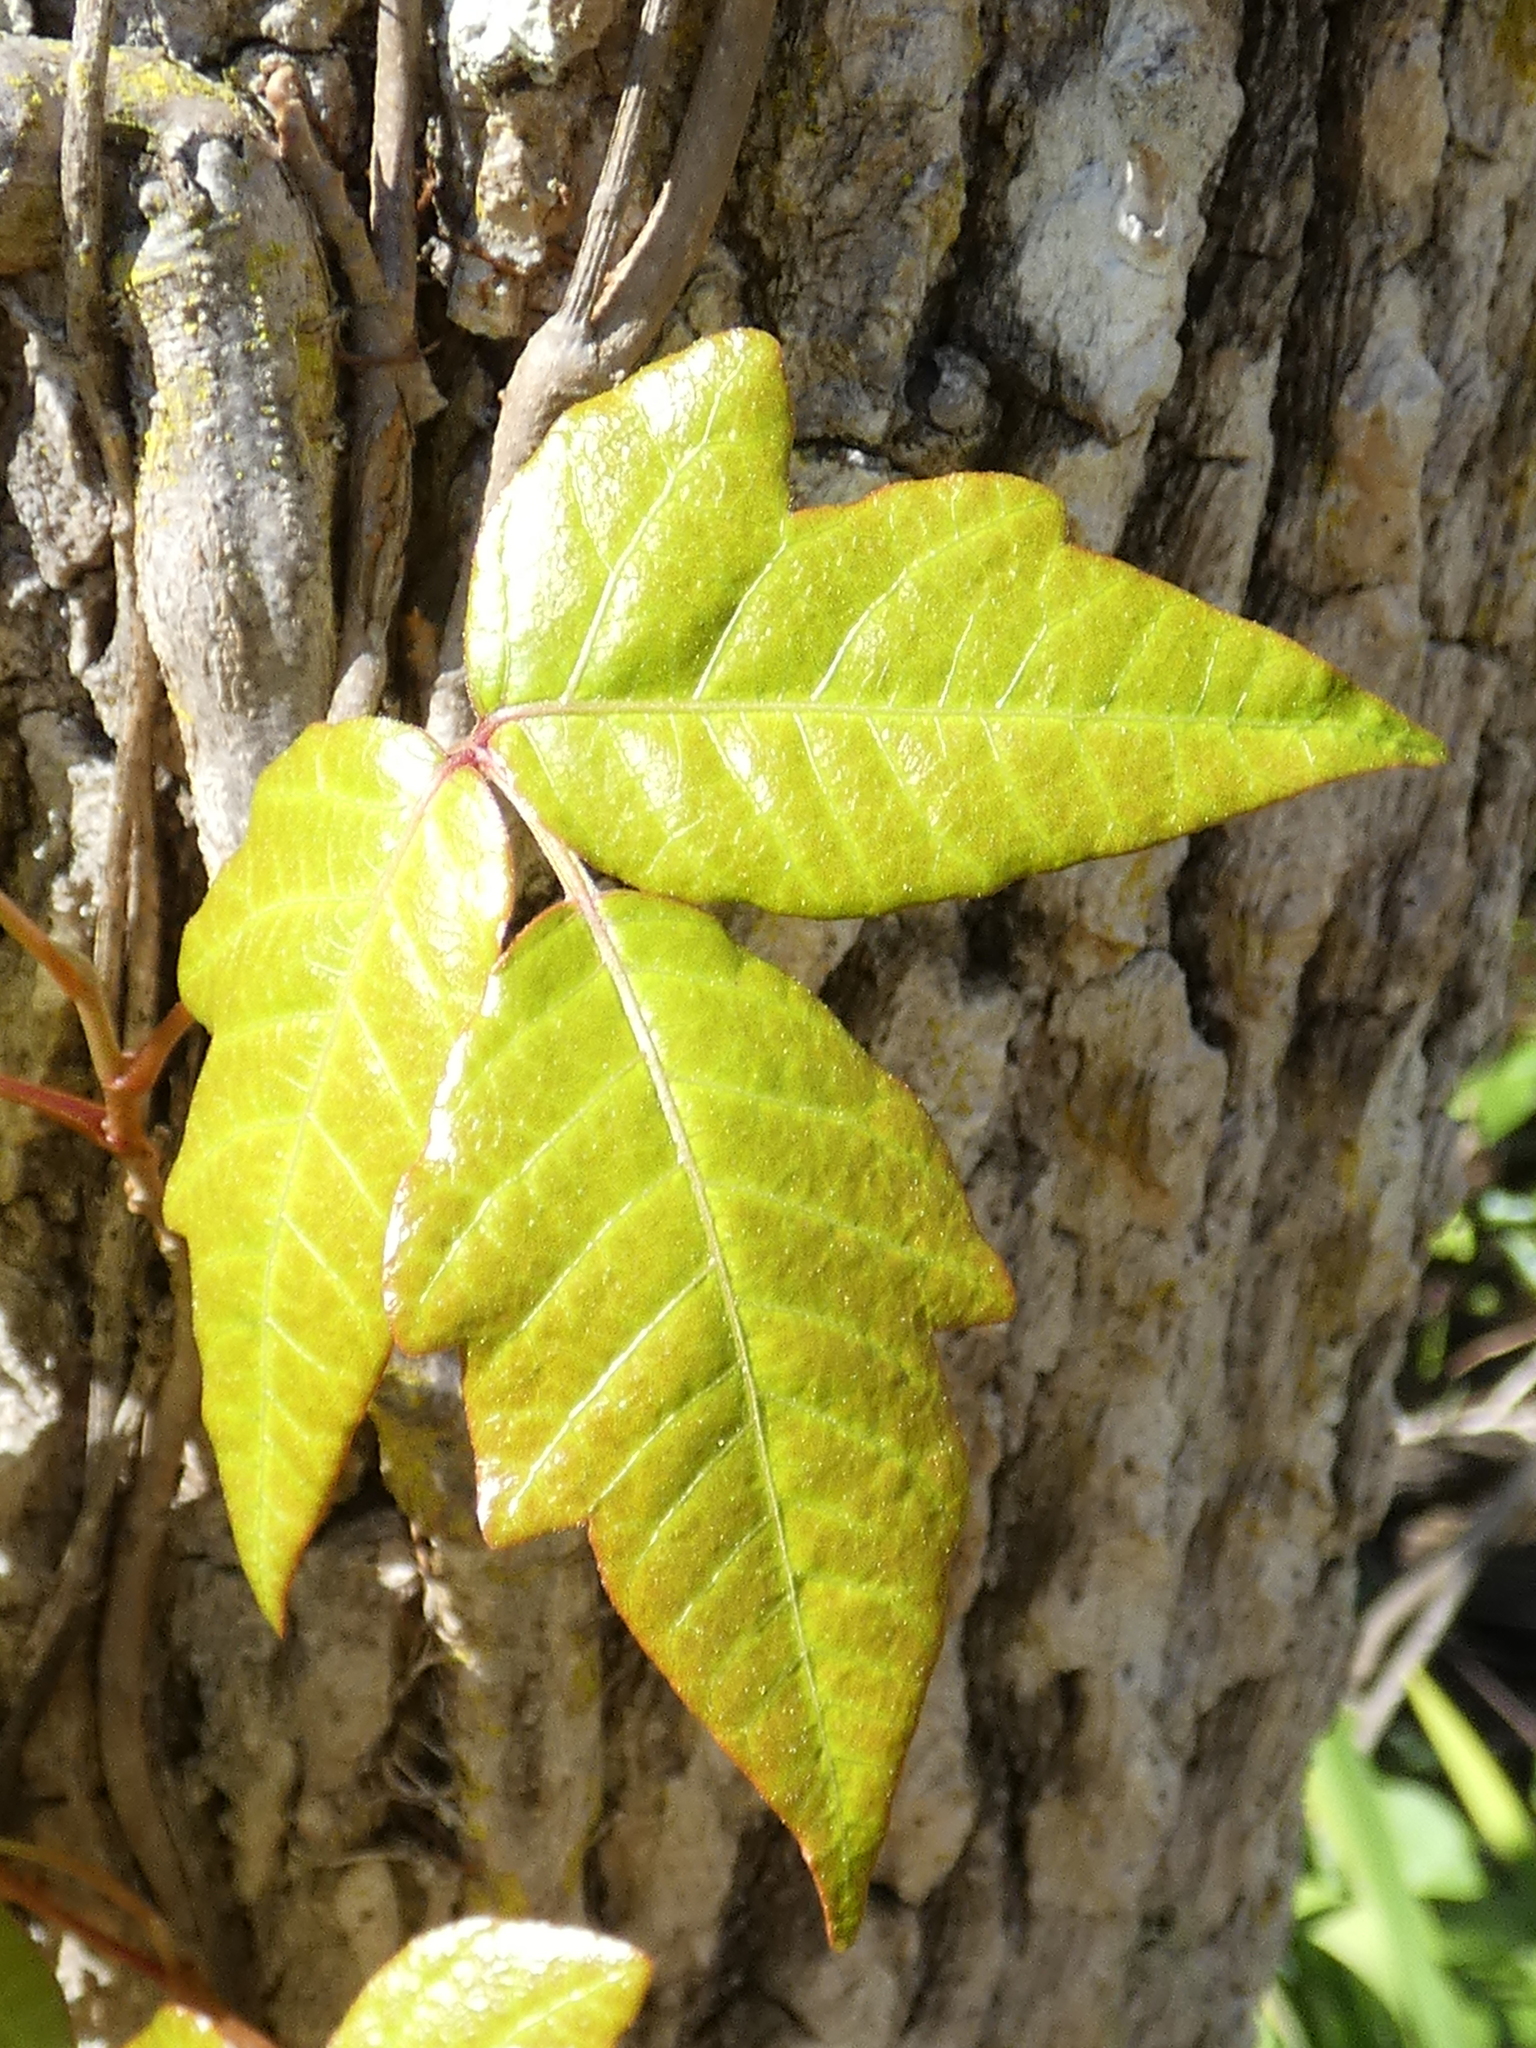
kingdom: Plantae
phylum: Tracheophyta
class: Magnoliopsida
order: Sapindales
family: Anacardiaceae
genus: Toxicodendron
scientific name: Toxicodendron radicans
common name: Poison ivy
